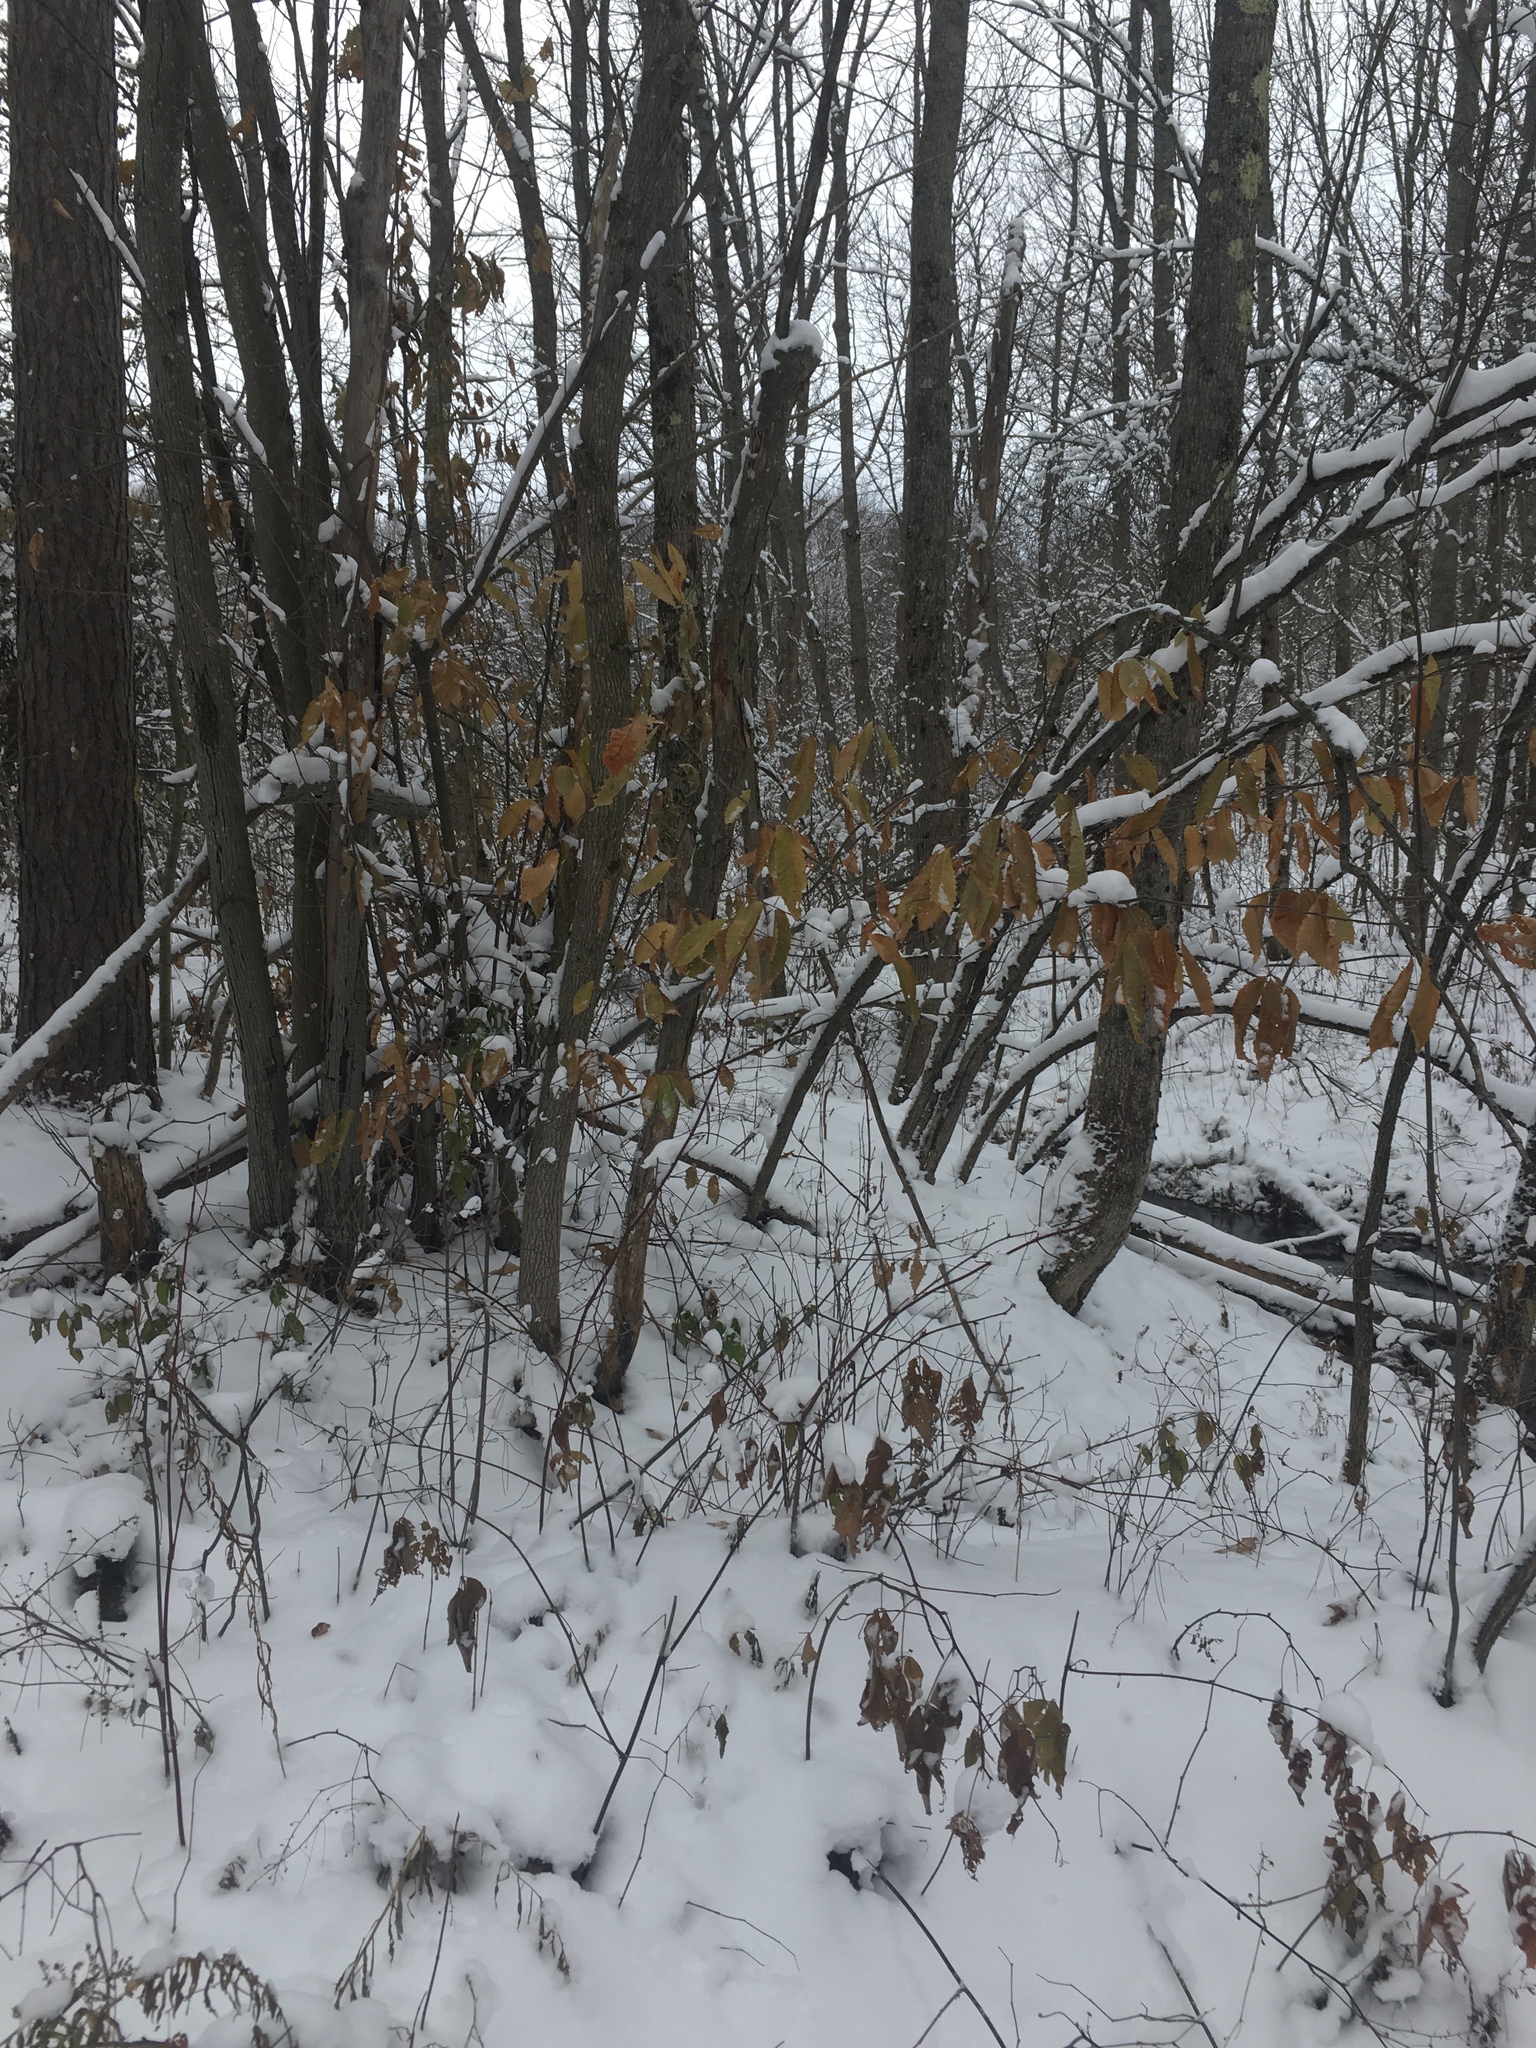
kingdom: Plantae
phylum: Tracheophyta
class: Magnoliopsida
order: Fagales
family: Fagaceae
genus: Castanea
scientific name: Castanea dentata
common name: American chestnut
